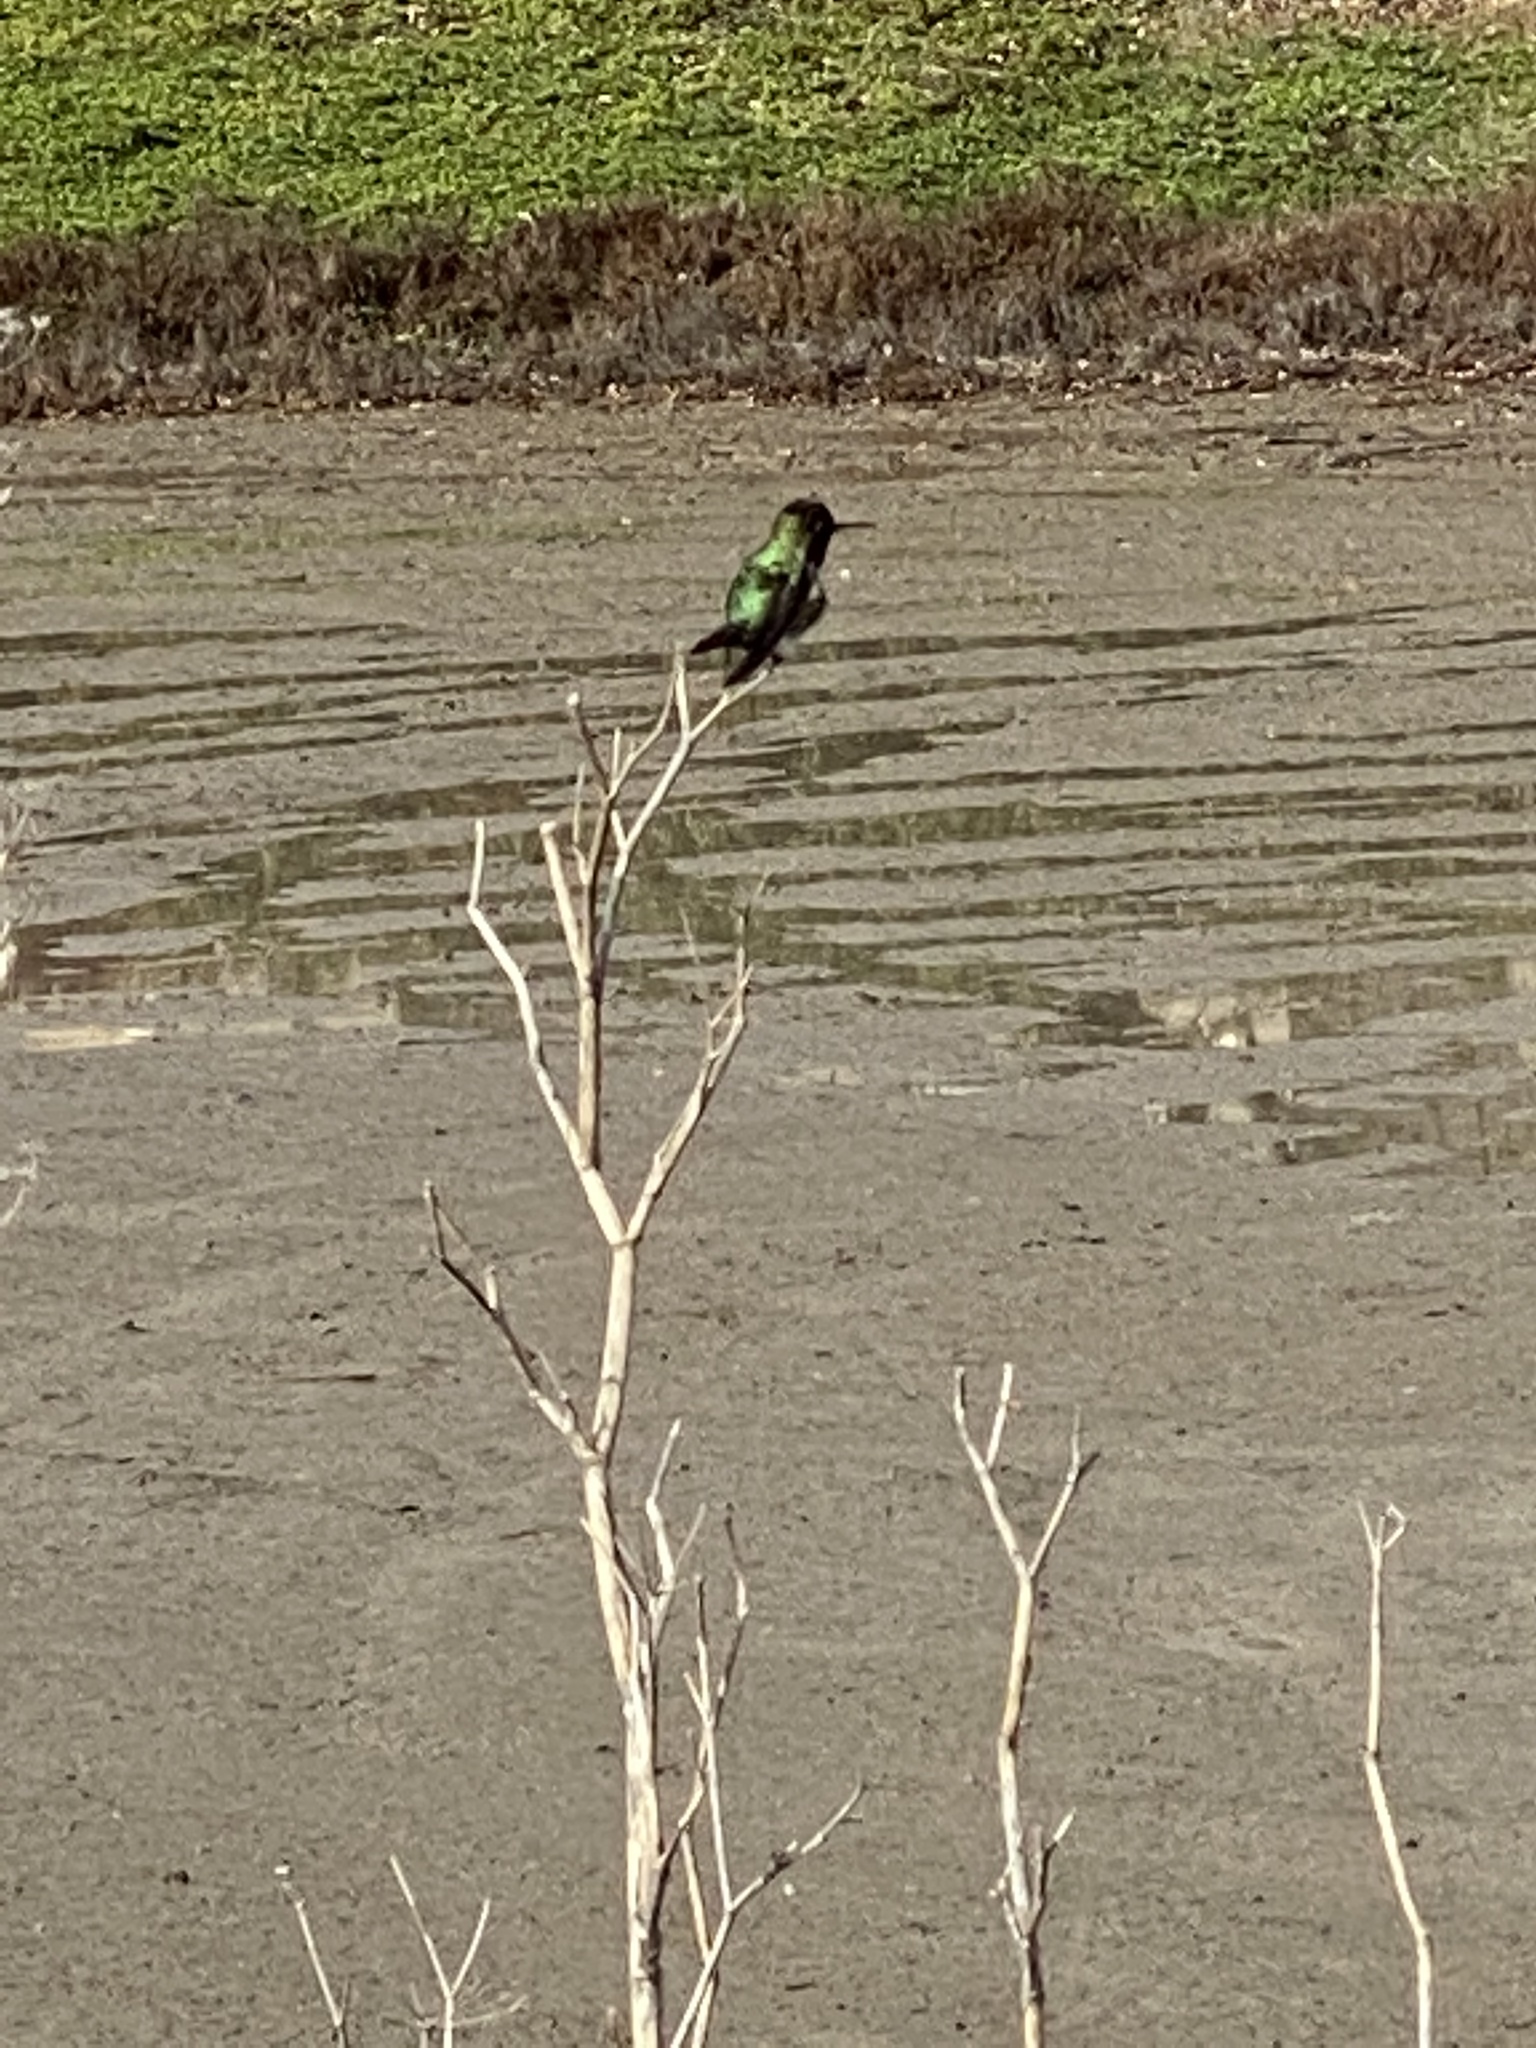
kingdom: Animalia
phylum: Chordata
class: Aves
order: Apodiformes
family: Trochilidae
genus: Calypte
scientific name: Calypte anna
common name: Anna's hummingbird
